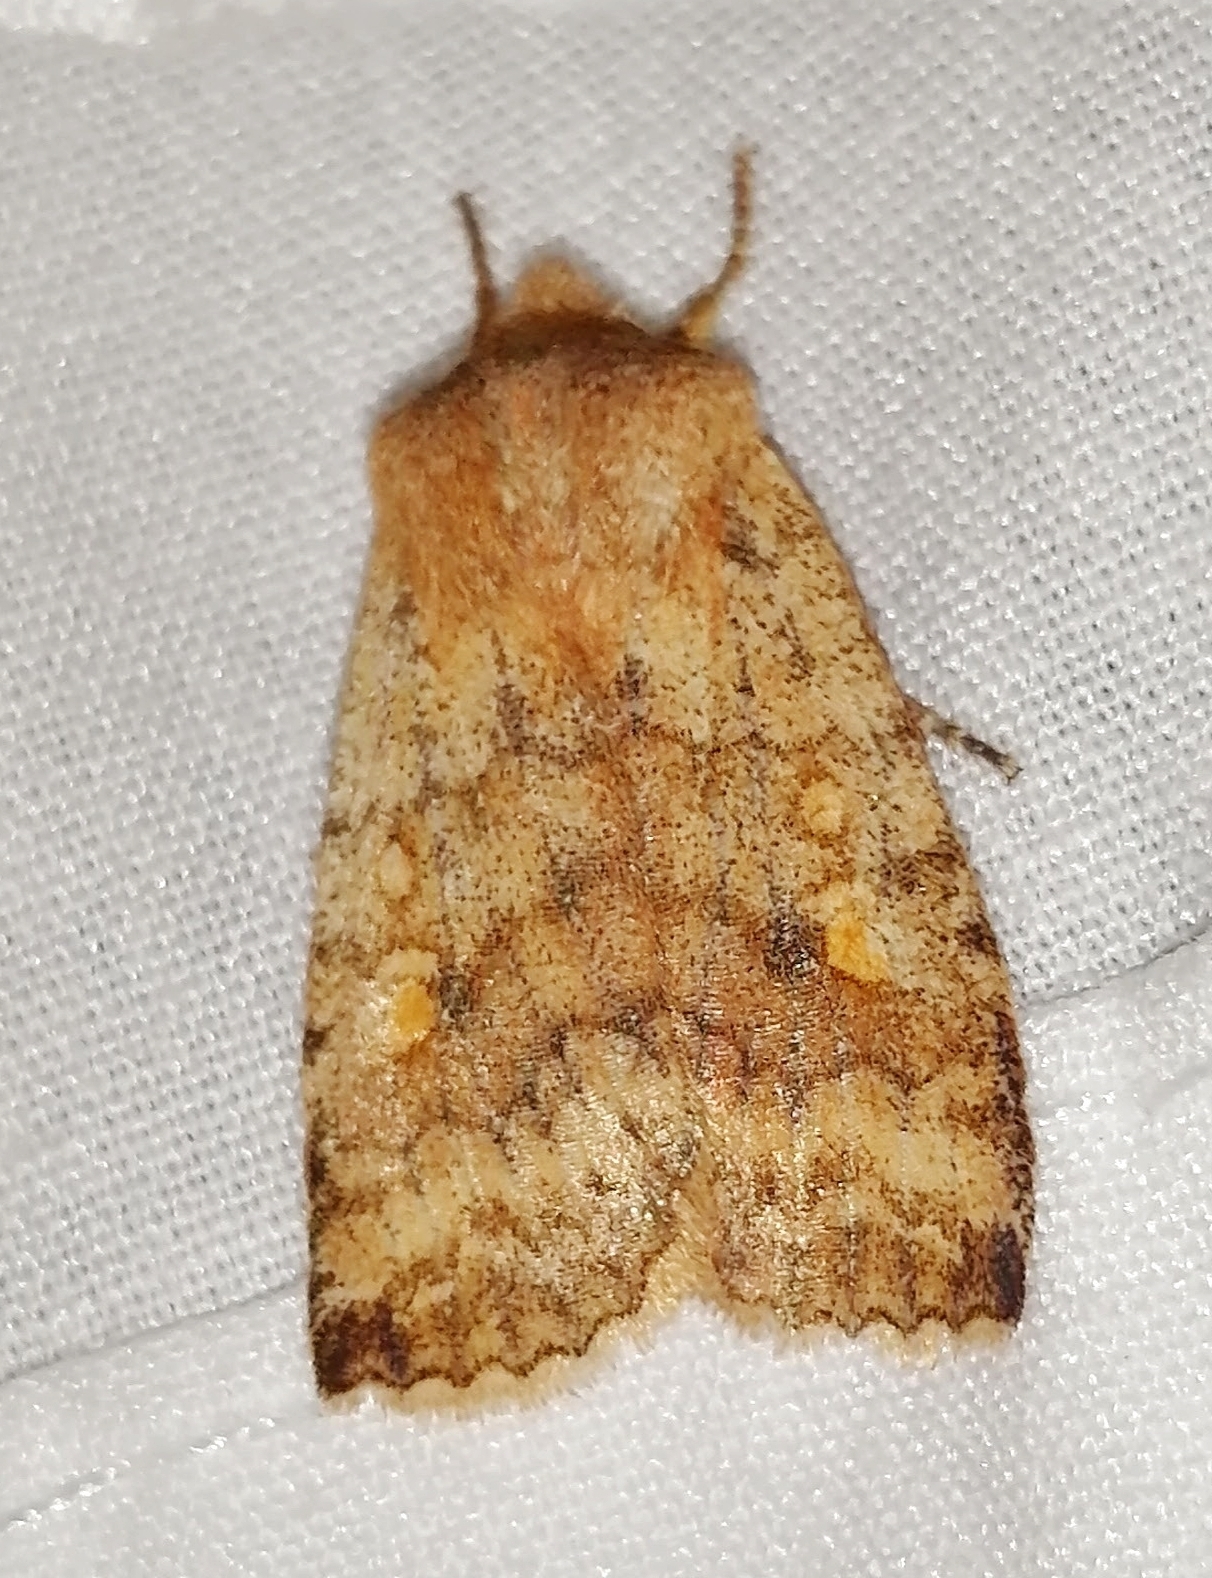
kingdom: Animalia
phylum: Arthropoda
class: Insecta
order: Lepidoptera
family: Noctuidae
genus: Eupsilia
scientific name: Eupsilia tristigmata
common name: Three-spotted sallow
